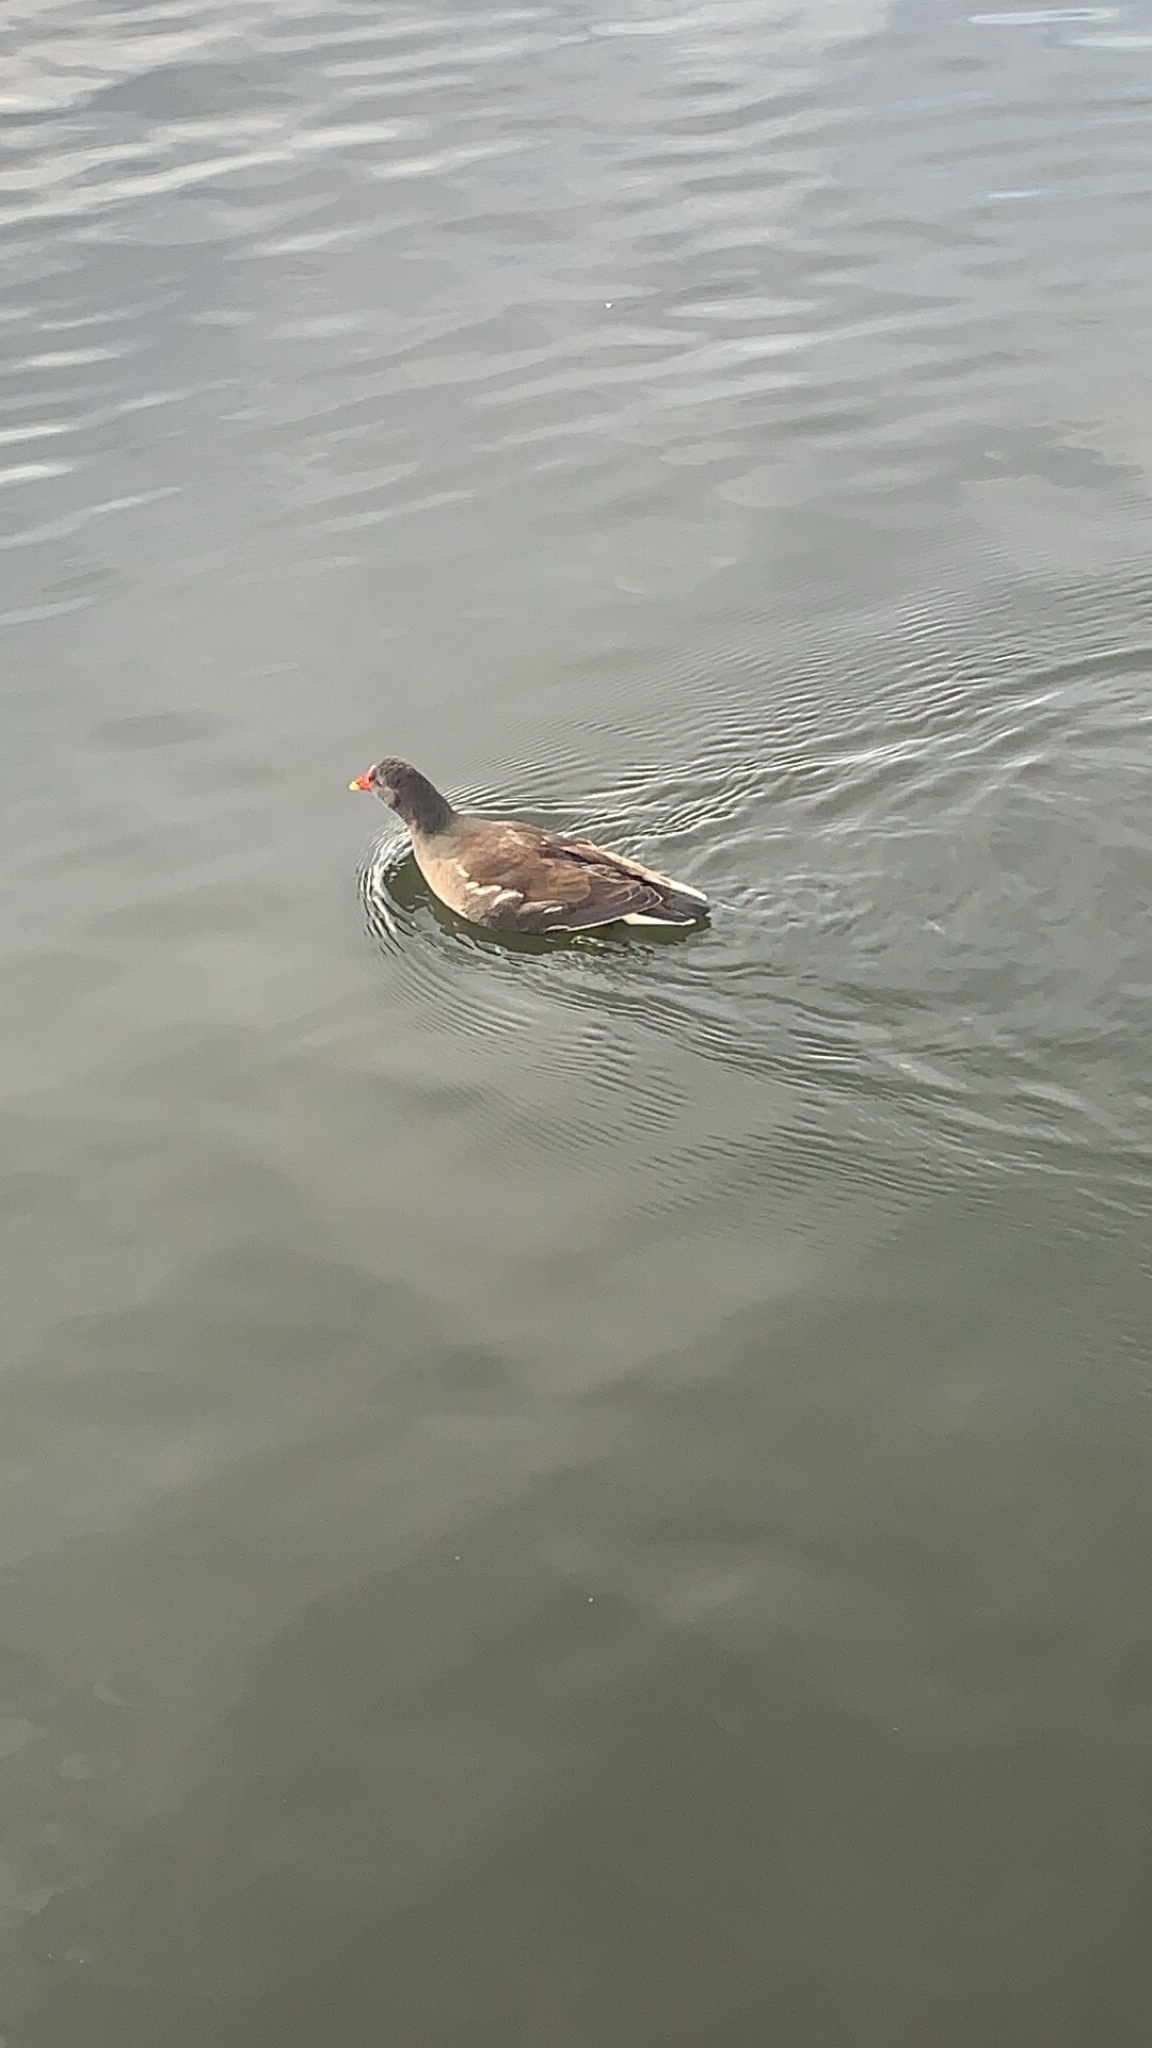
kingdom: Animalia
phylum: Chordata
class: Aves
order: Gruiformes
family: Rallidae
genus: Gallinula
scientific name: Gallinula chloropus
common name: Common moorhen
